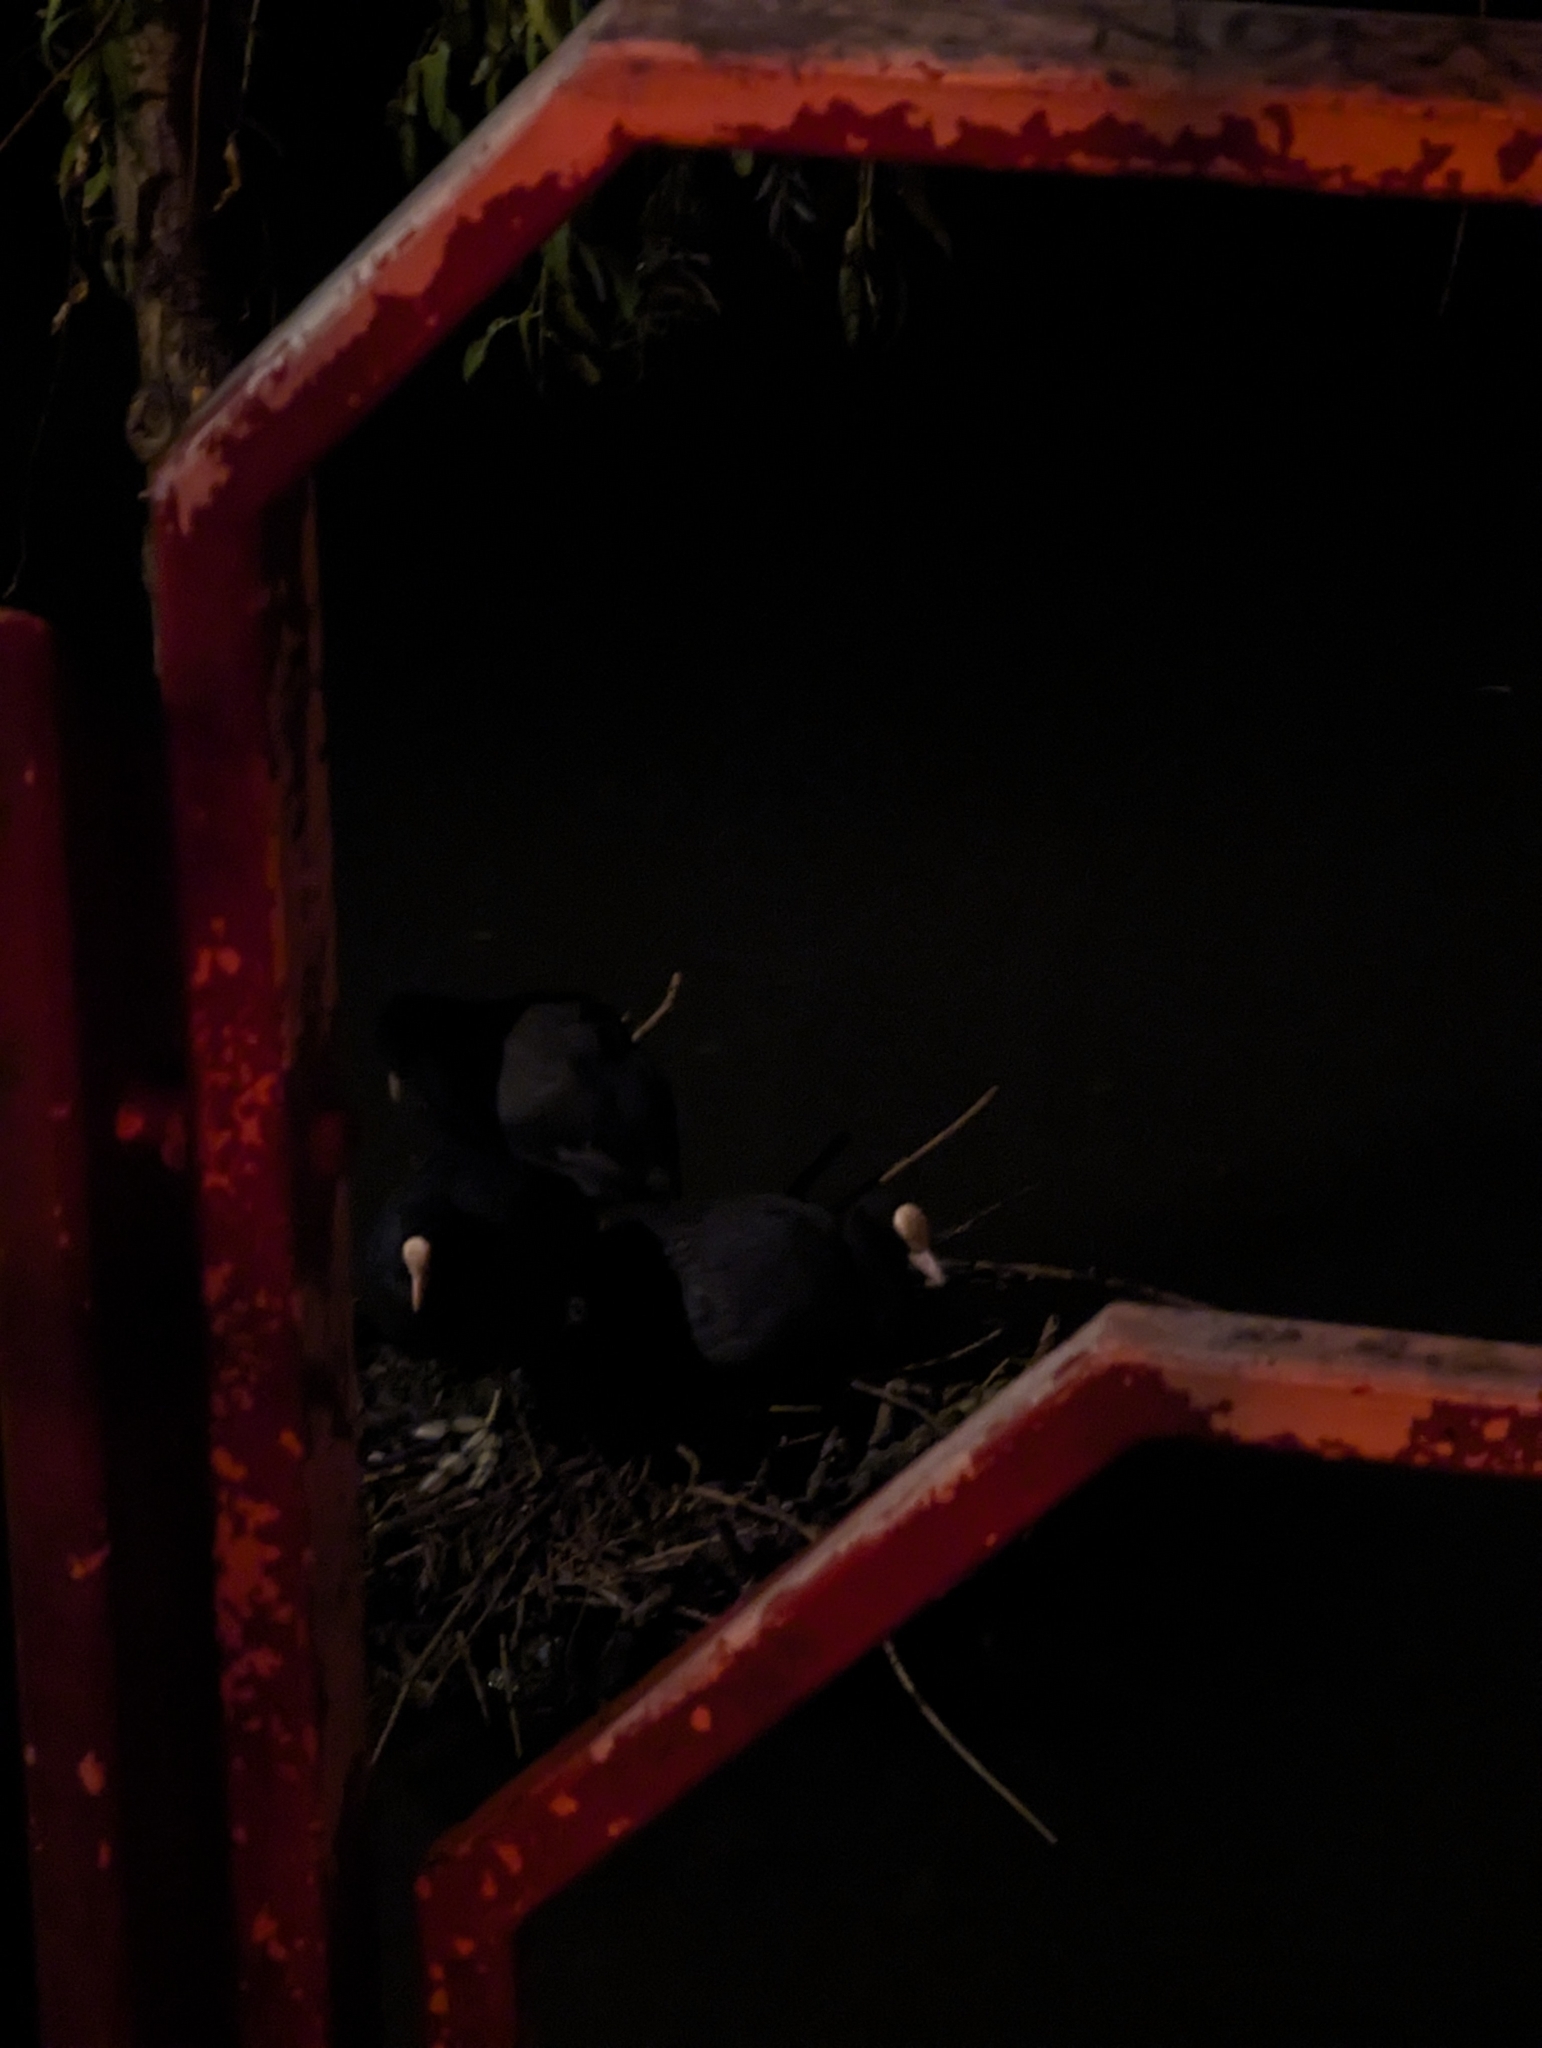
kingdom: Animalia
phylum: Chordata
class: Aves
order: Gruiformes
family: Rallidae
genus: Fulica
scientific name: Fulica atra
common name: Eurasian coot
